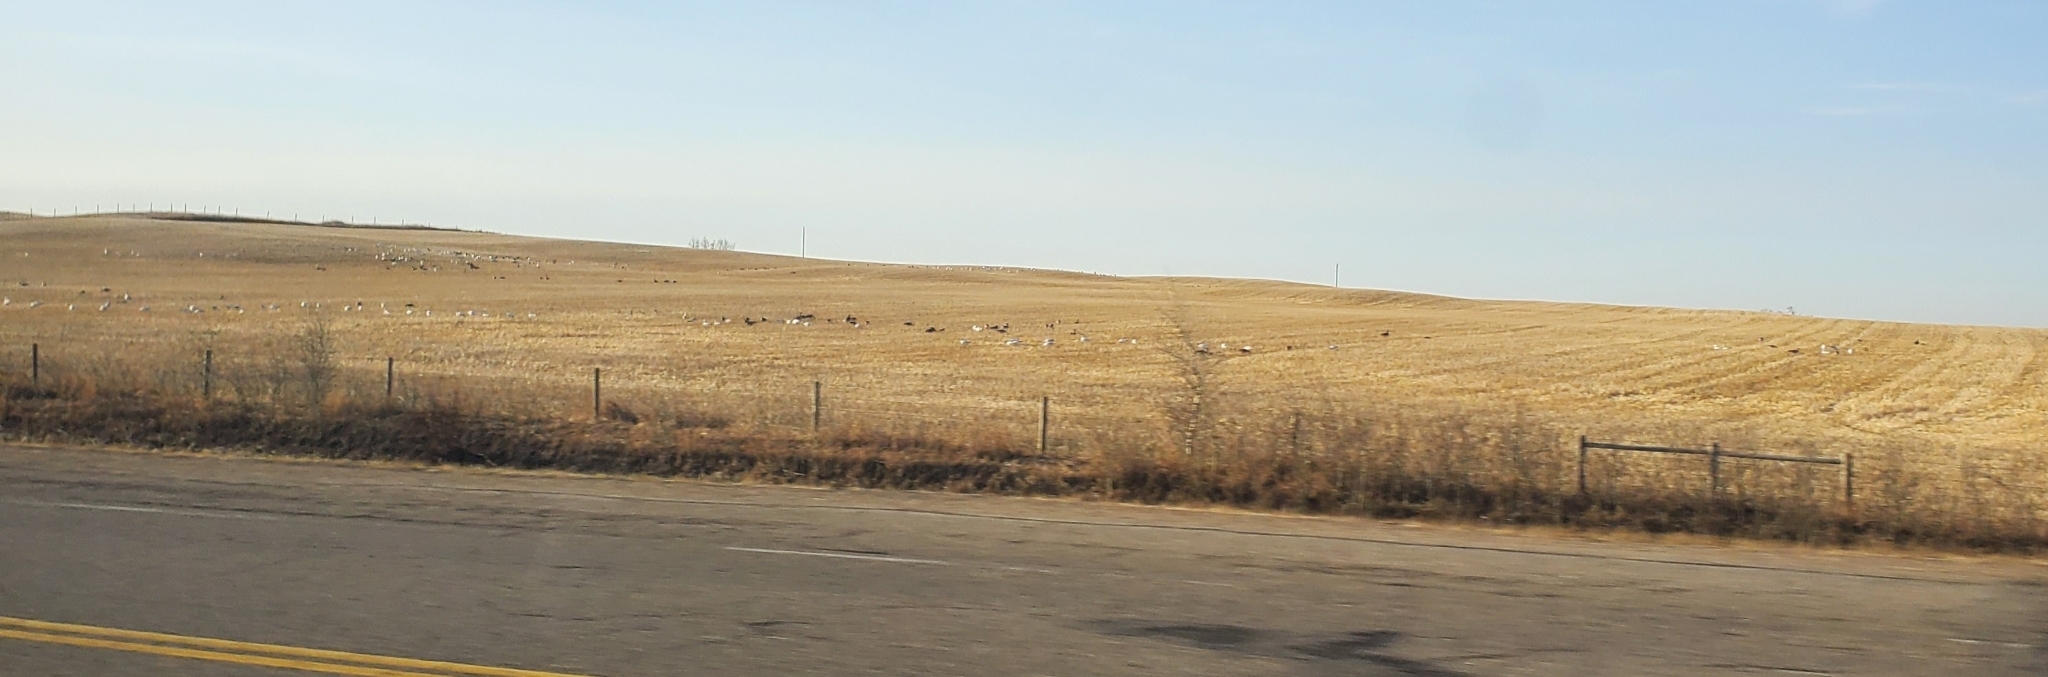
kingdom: Animalia
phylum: Chordata
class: Aves
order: Anseriformes
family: Anatidae
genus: Anser
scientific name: Anser caerulescens
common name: Snow goose
